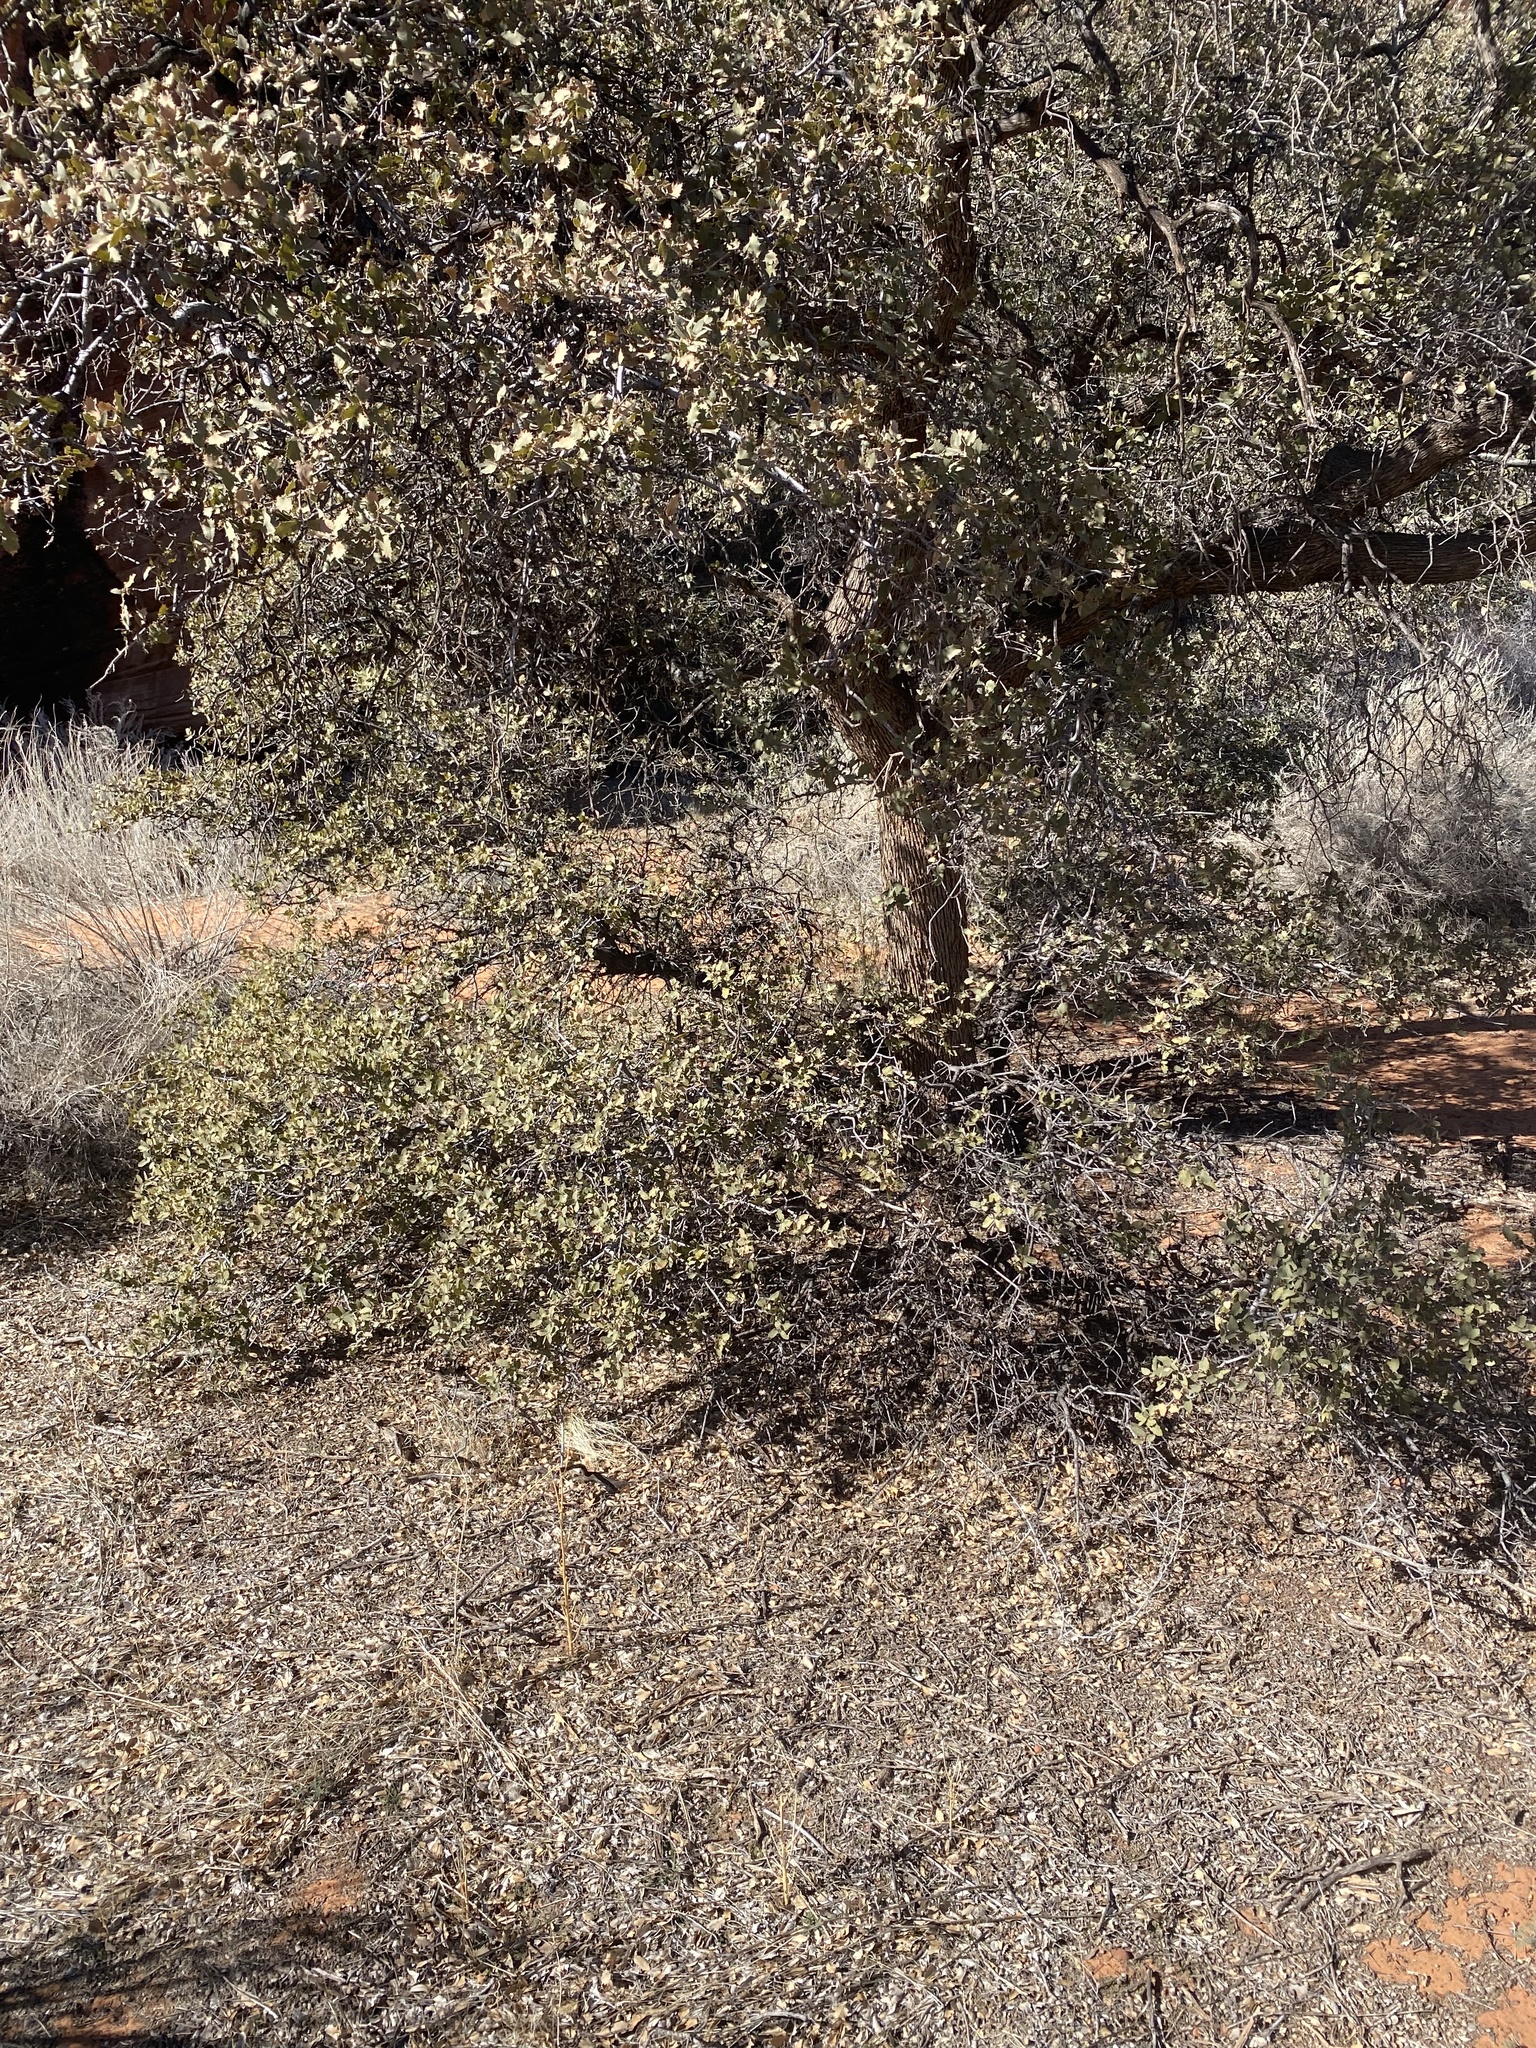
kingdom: Plantae
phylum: Tracheophyta
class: Magnoliopsida
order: Fagales
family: Fagaceae
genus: Quercus
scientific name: Quercus turbinella
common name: Sonoran scrub oak
